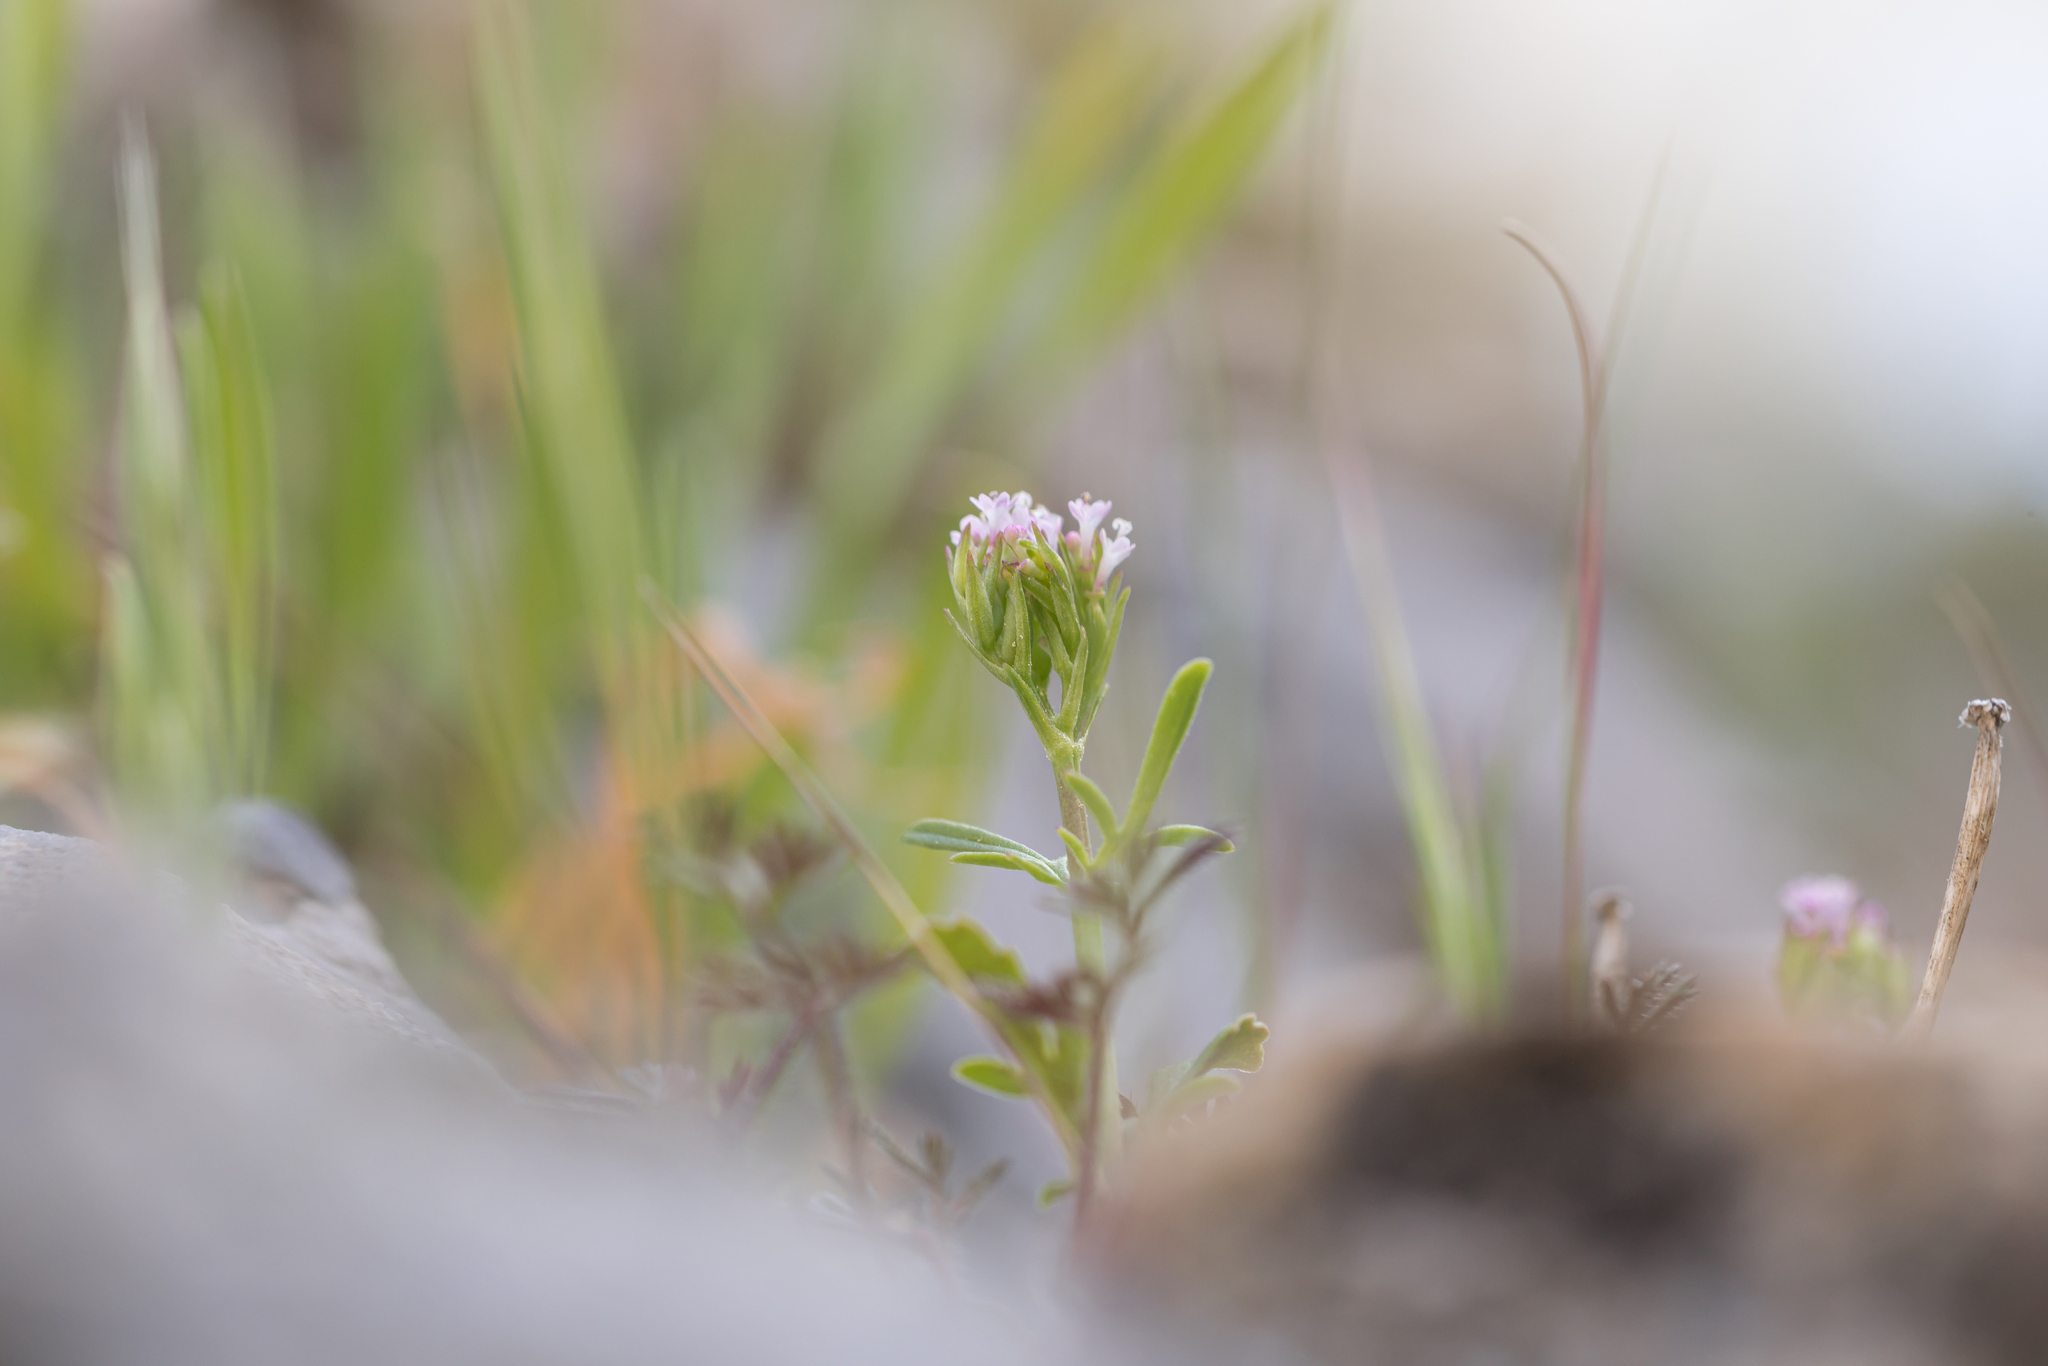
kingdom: Plantae
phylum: Tracheophyta
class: Magnoliopsida
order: Dipsacales
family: Caprifoliaceae
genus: Centranthus
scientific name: Centranthus calcitrapae
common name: Annual valerian
